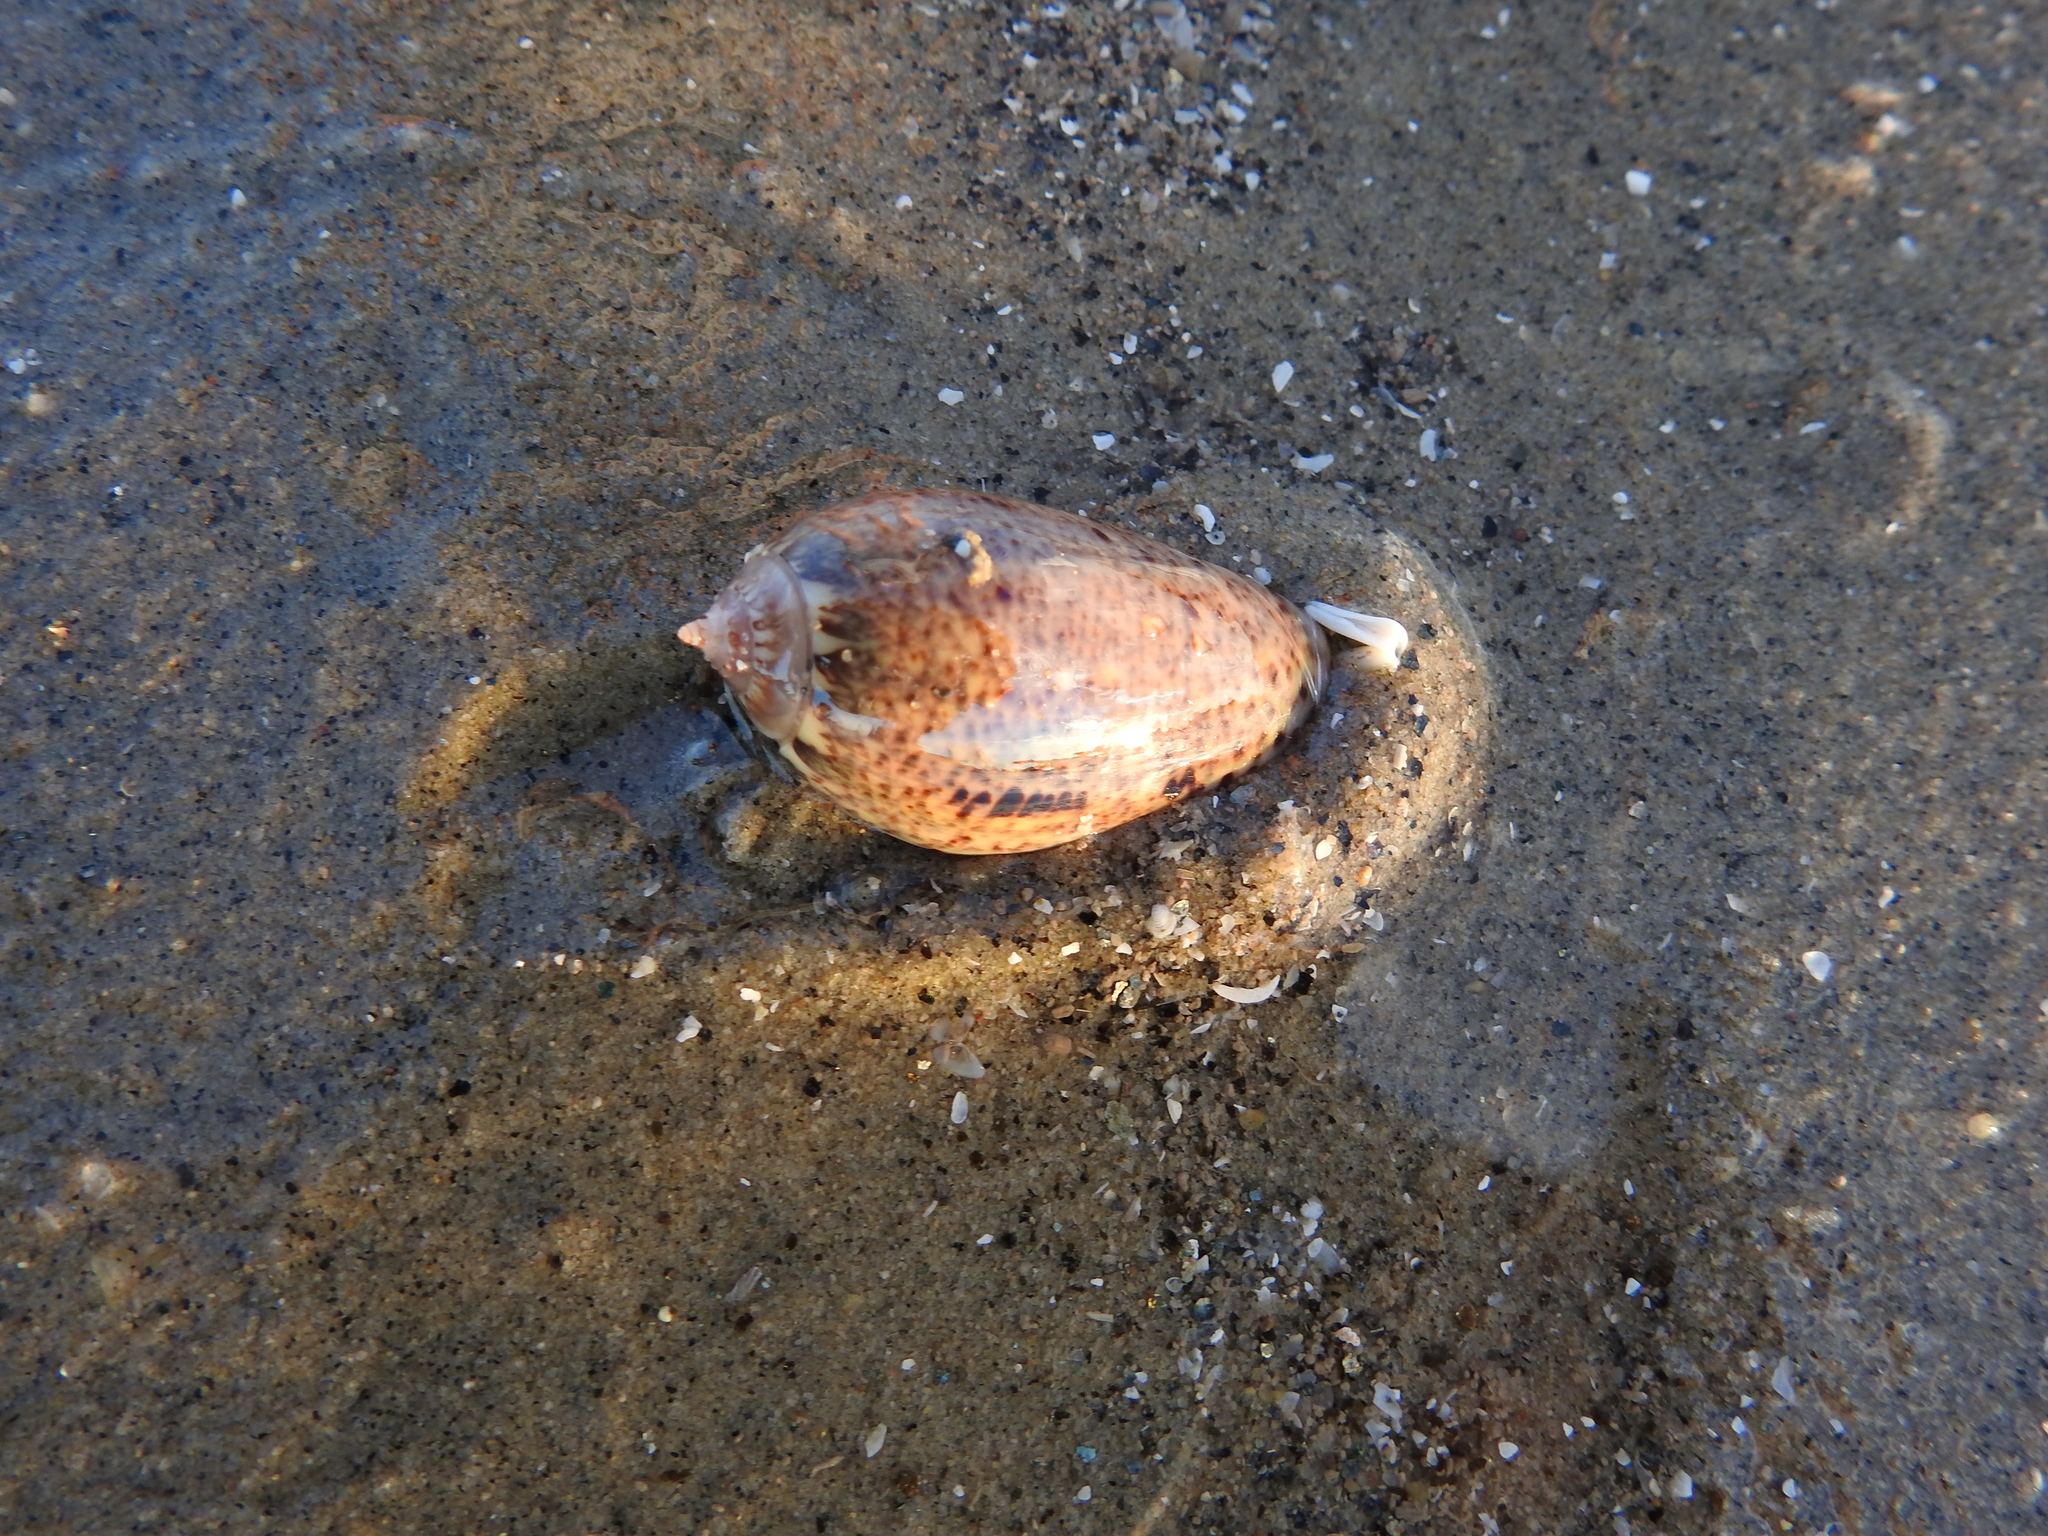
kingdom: Animalia
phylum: Mollusca
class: Gastropoda
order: Neogastropoda
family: Olividae
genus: Oliva
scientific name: Oliva incrassata
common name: Angled olive
